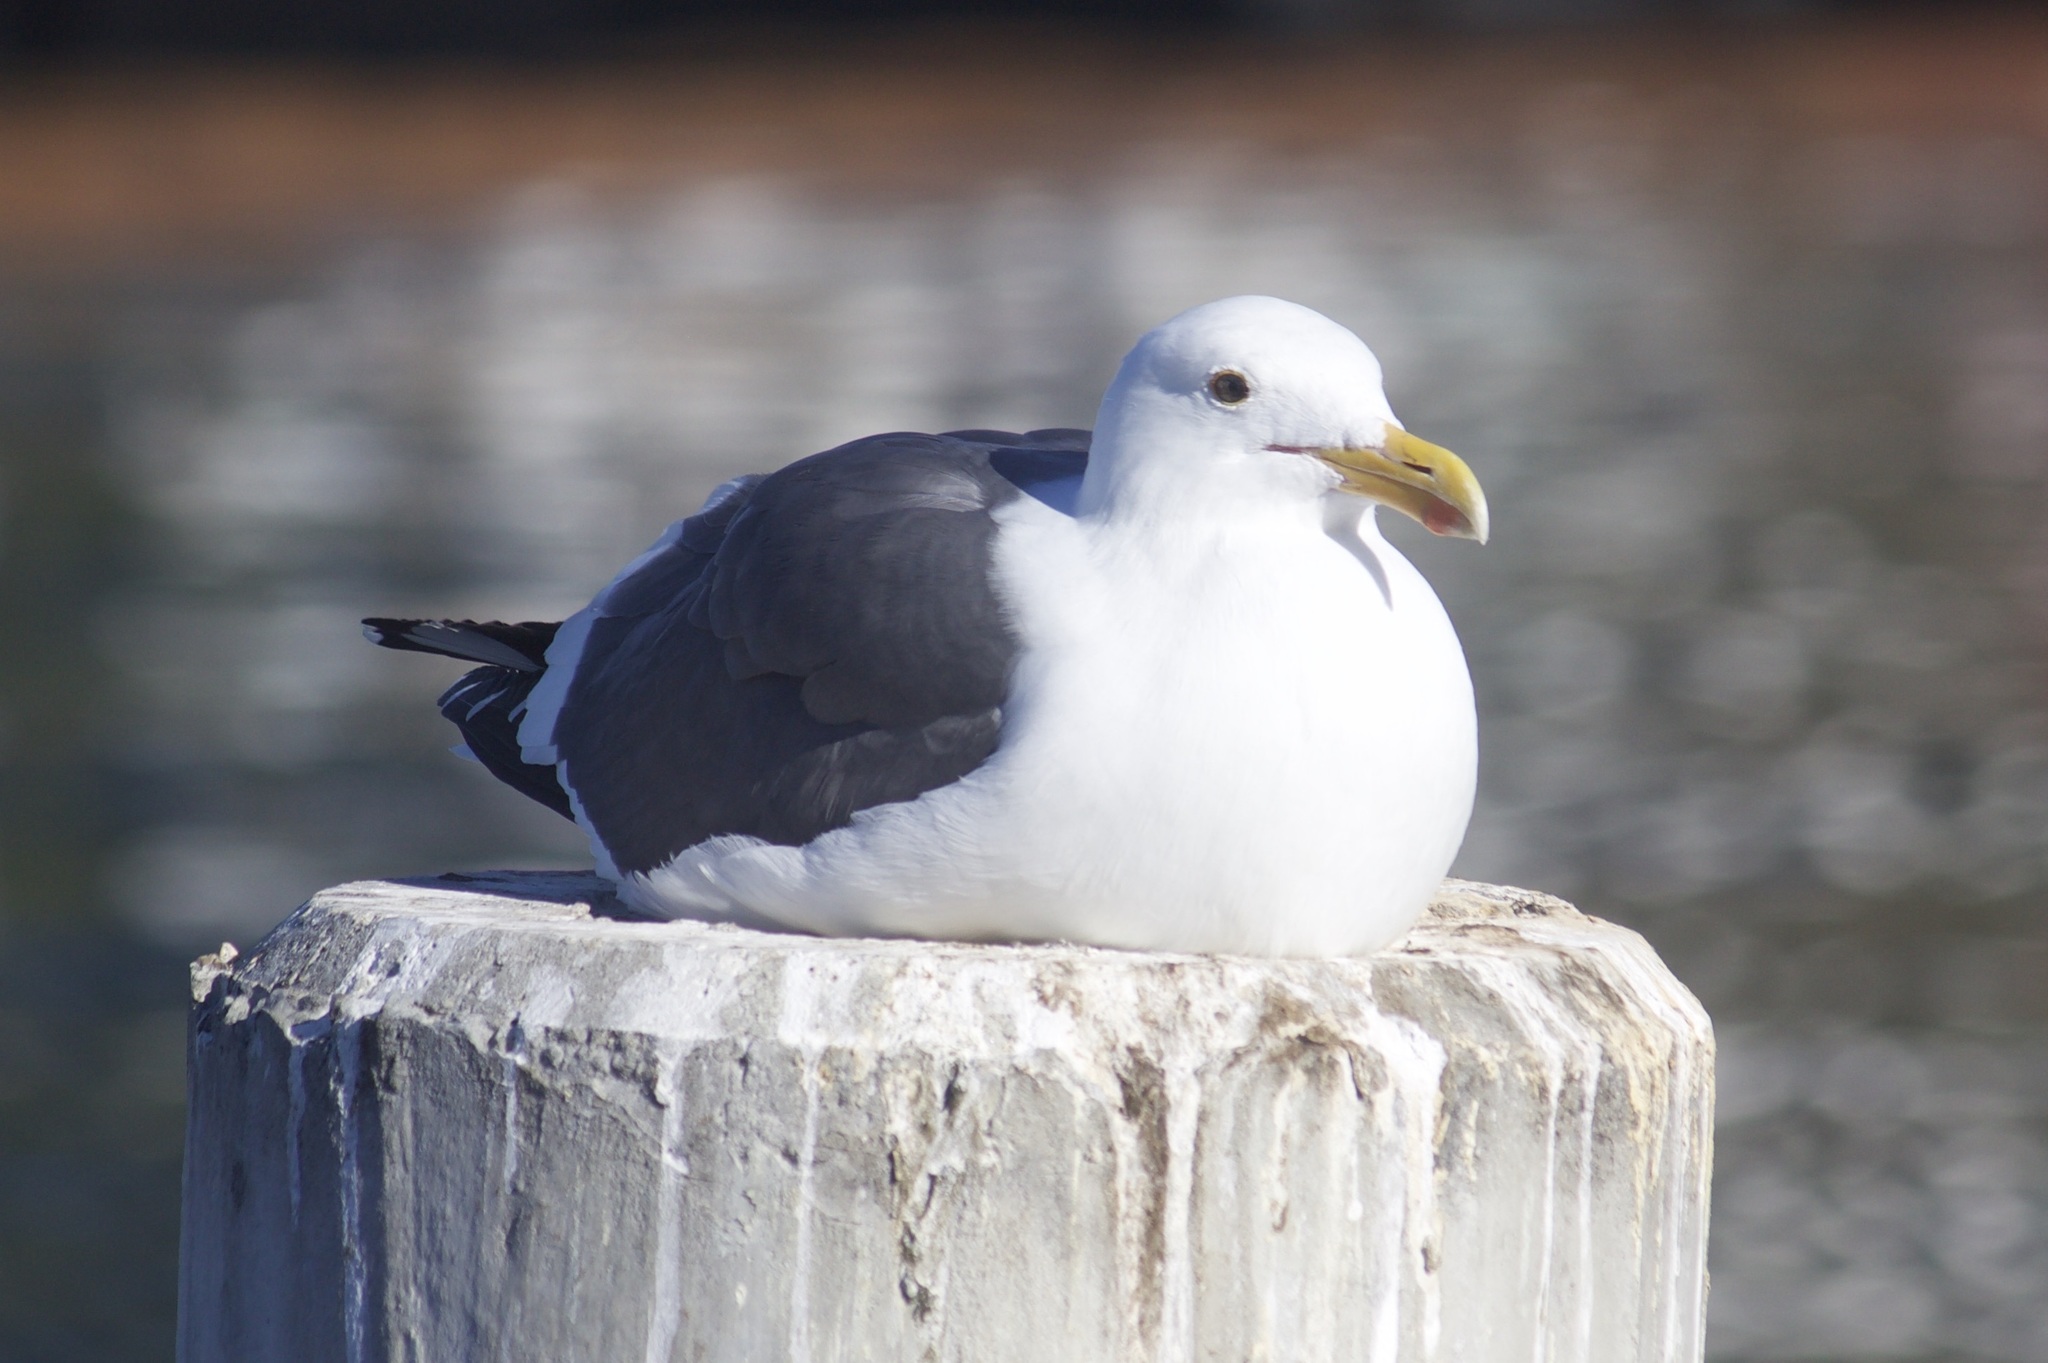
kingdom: Animalia
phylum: Chordata
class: Aves
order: Charadriiformes
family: Laridae
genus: Larus
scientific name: Larus occidentalis
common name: Western gull
